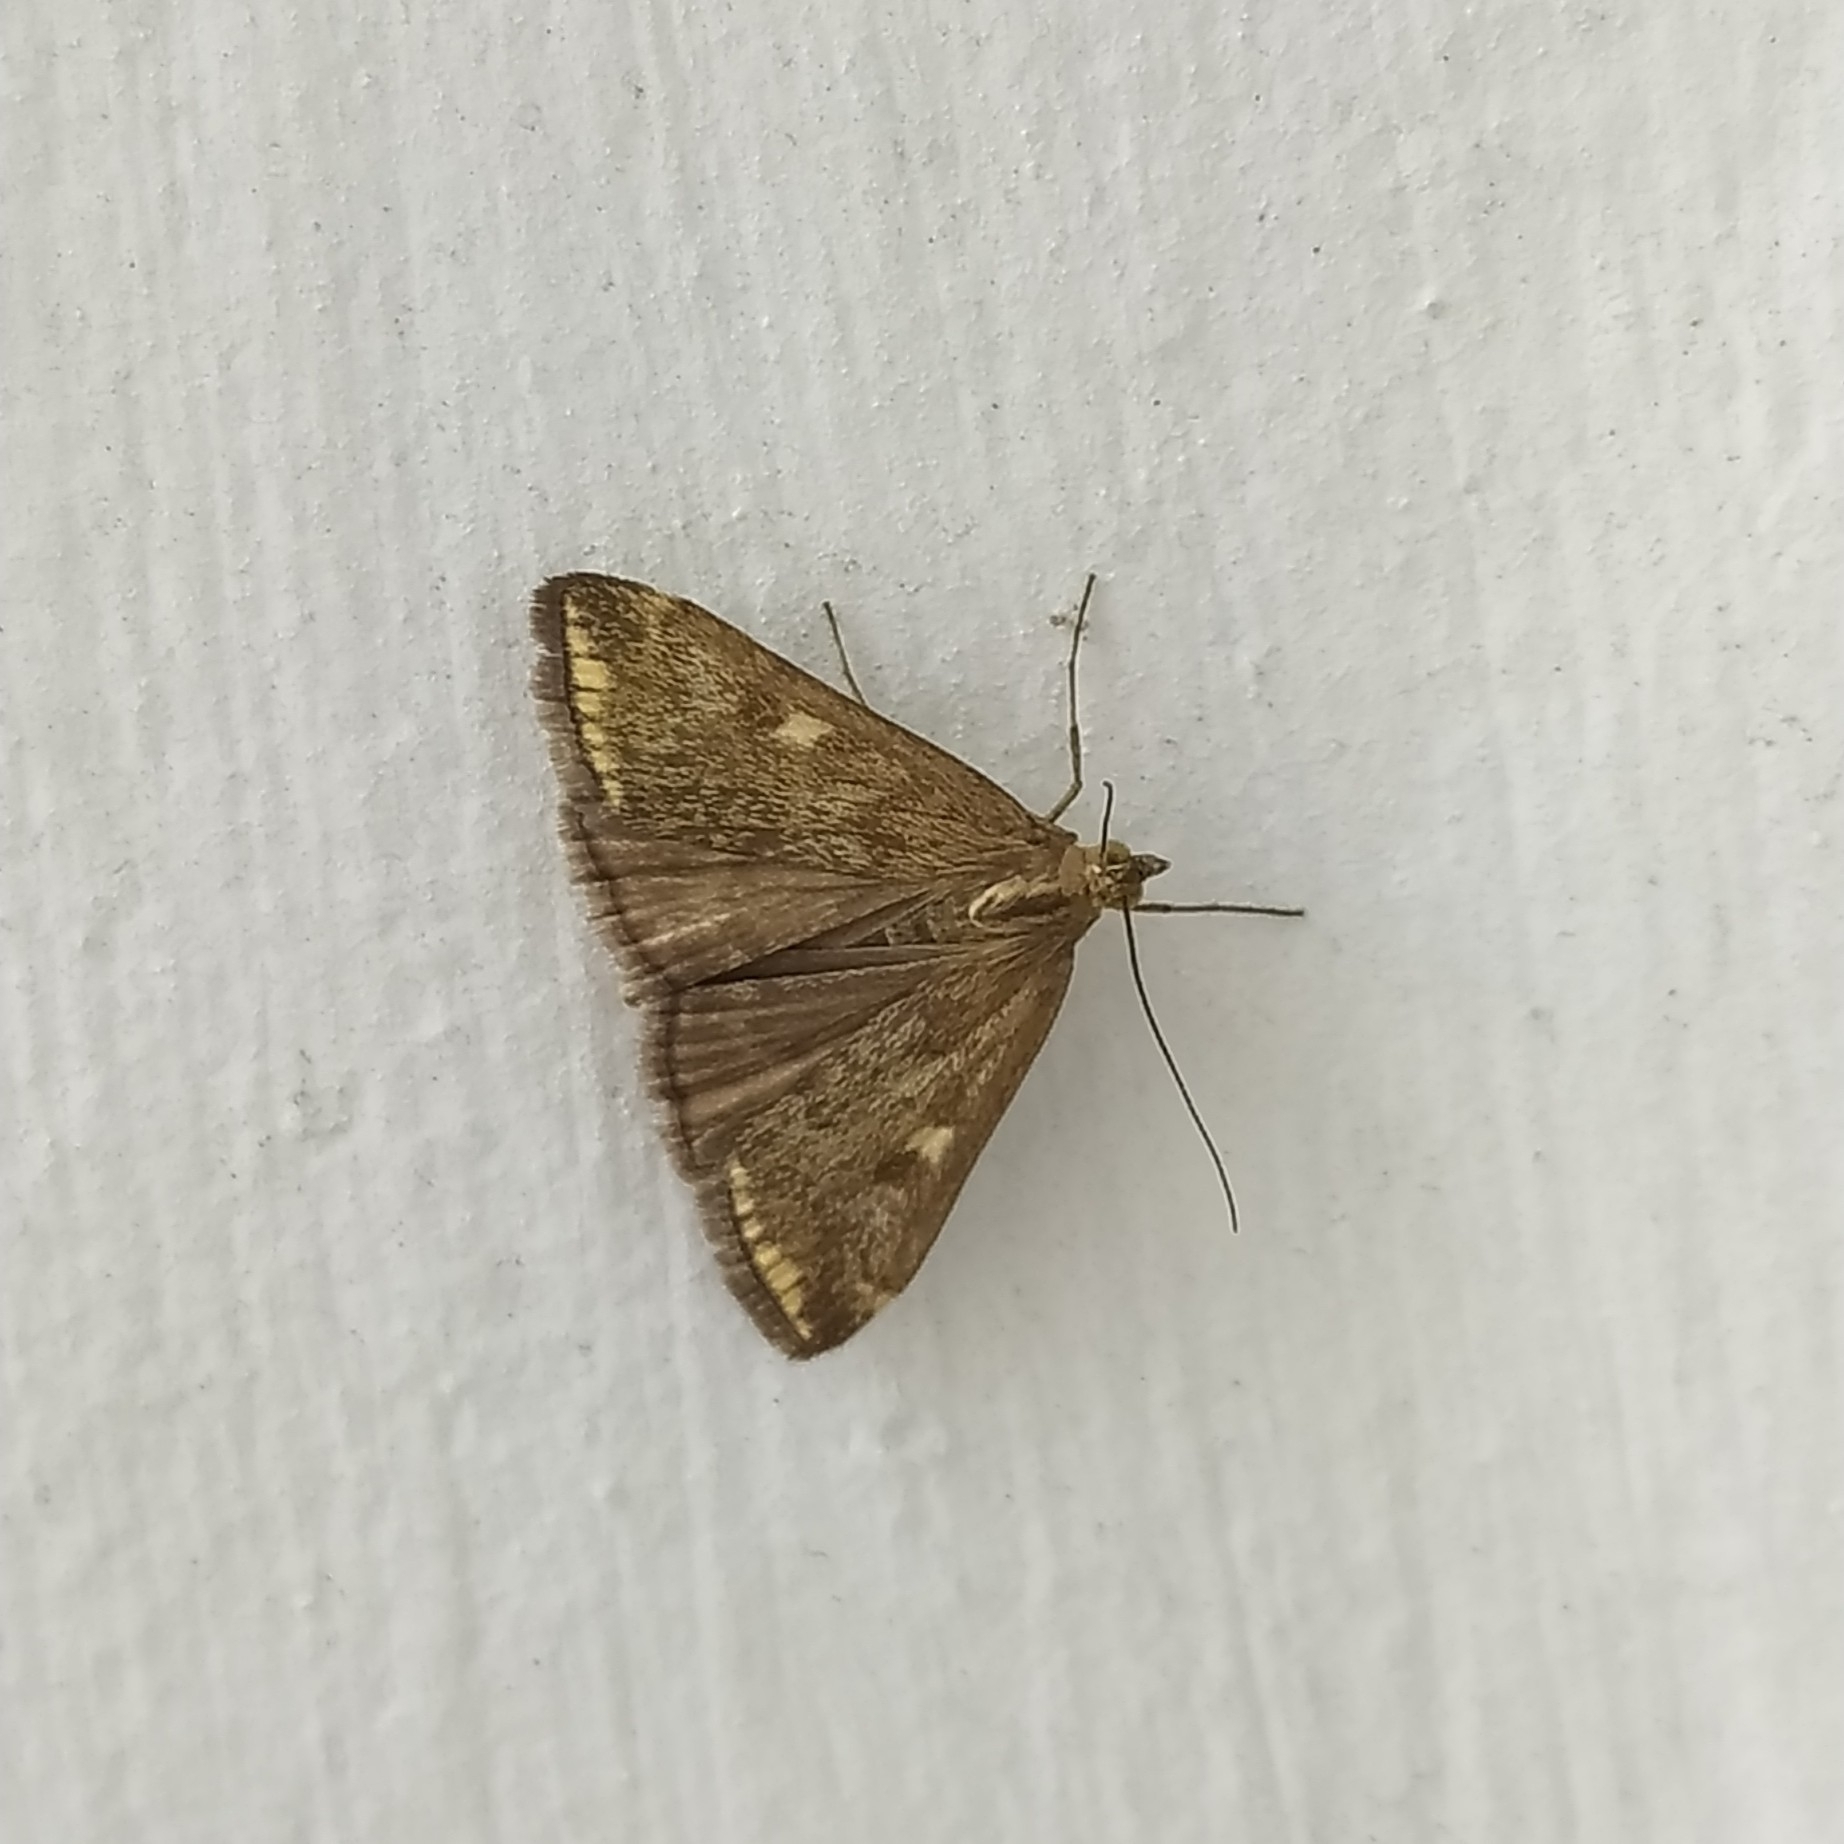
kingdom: Animalia
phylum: Arthropoda
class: Insecta
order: Lepidoptera
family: Crambidae
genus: Loxostege
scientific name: Loxostege sticticalis
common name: Crambid moth
